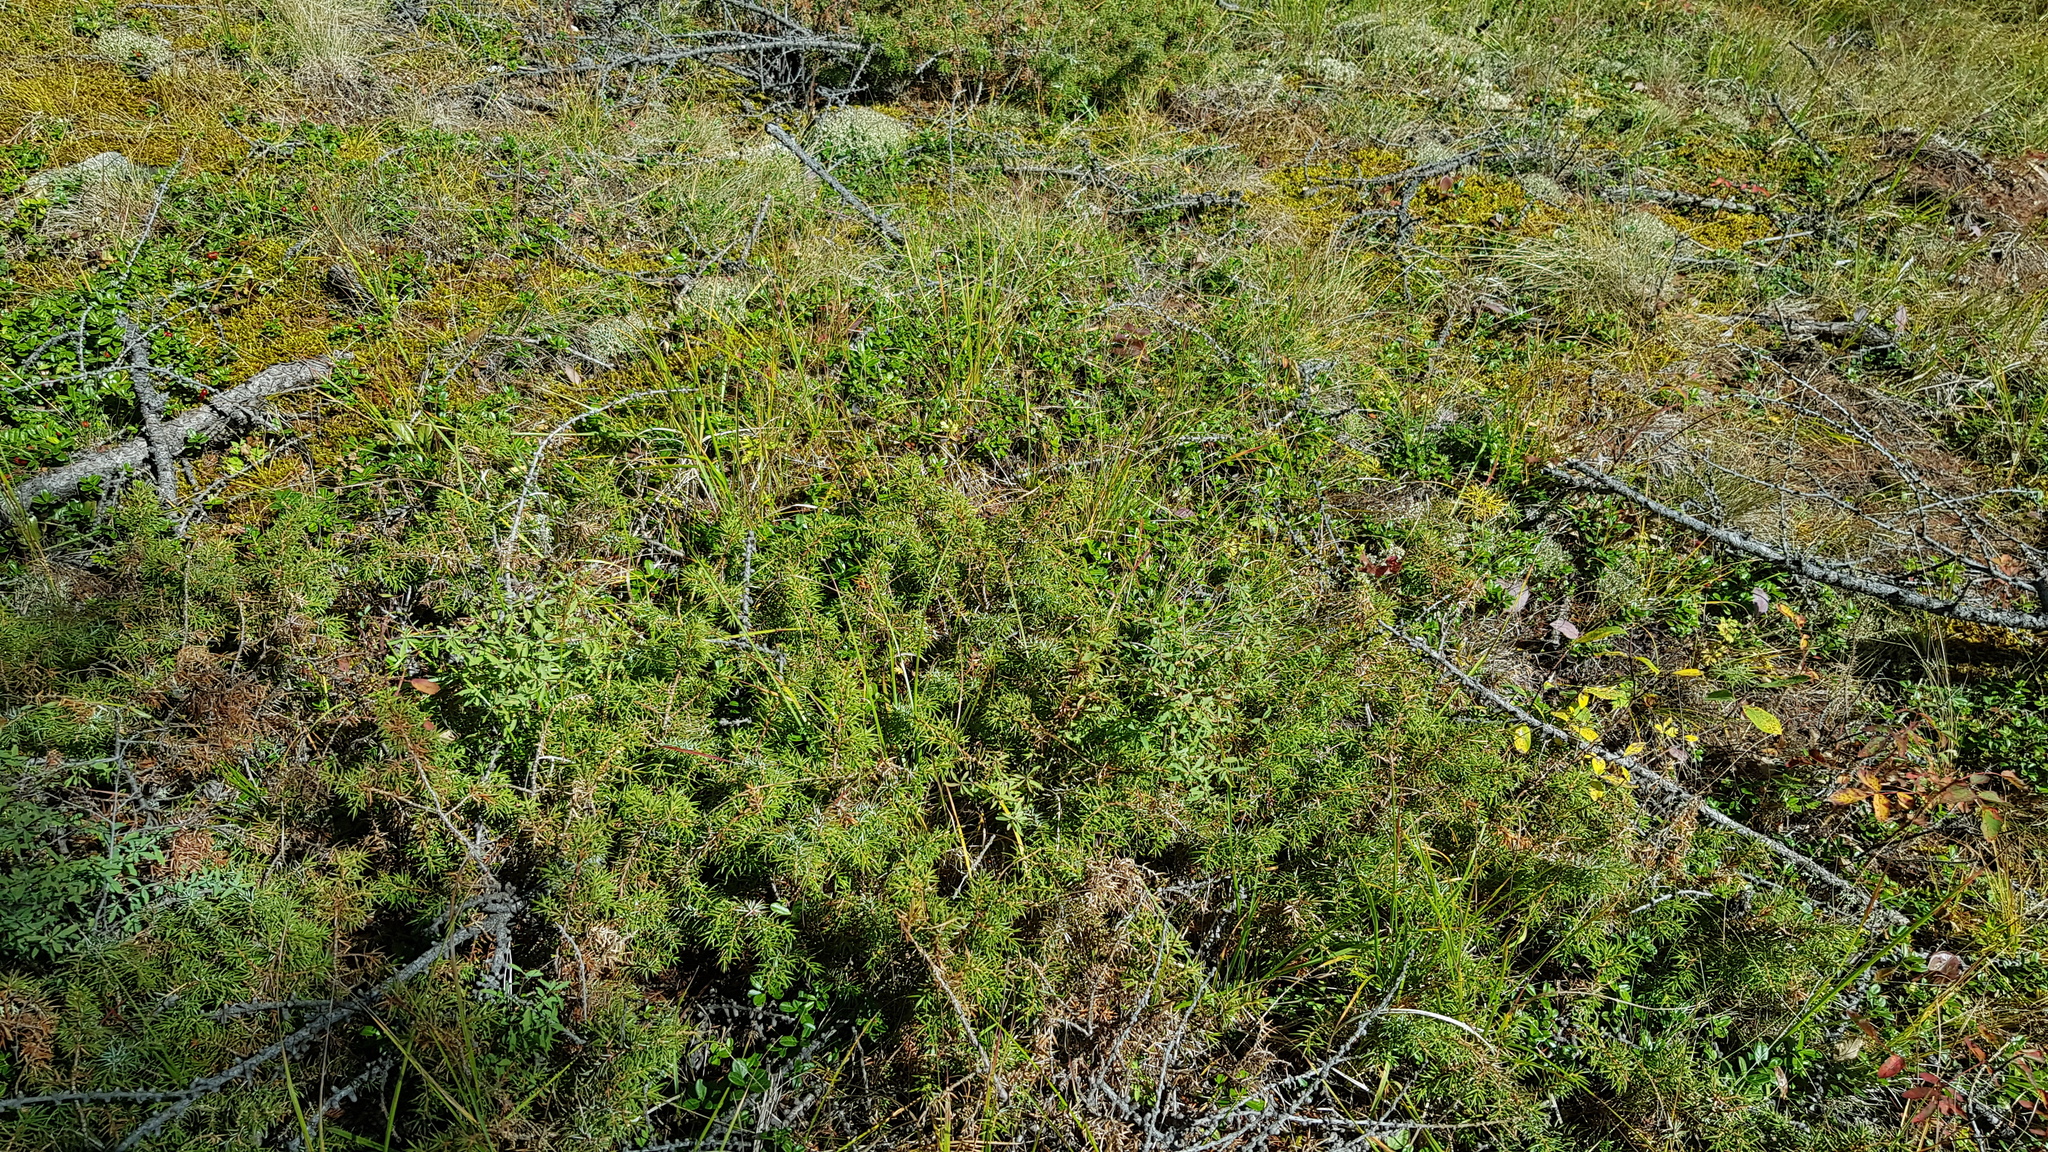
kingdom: Plantae
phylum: Tracheophyta
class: Pinopsida
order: Pinales
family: Cupressaceae
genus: Juniperus
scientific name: Juniperus communis
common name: Common juniper
